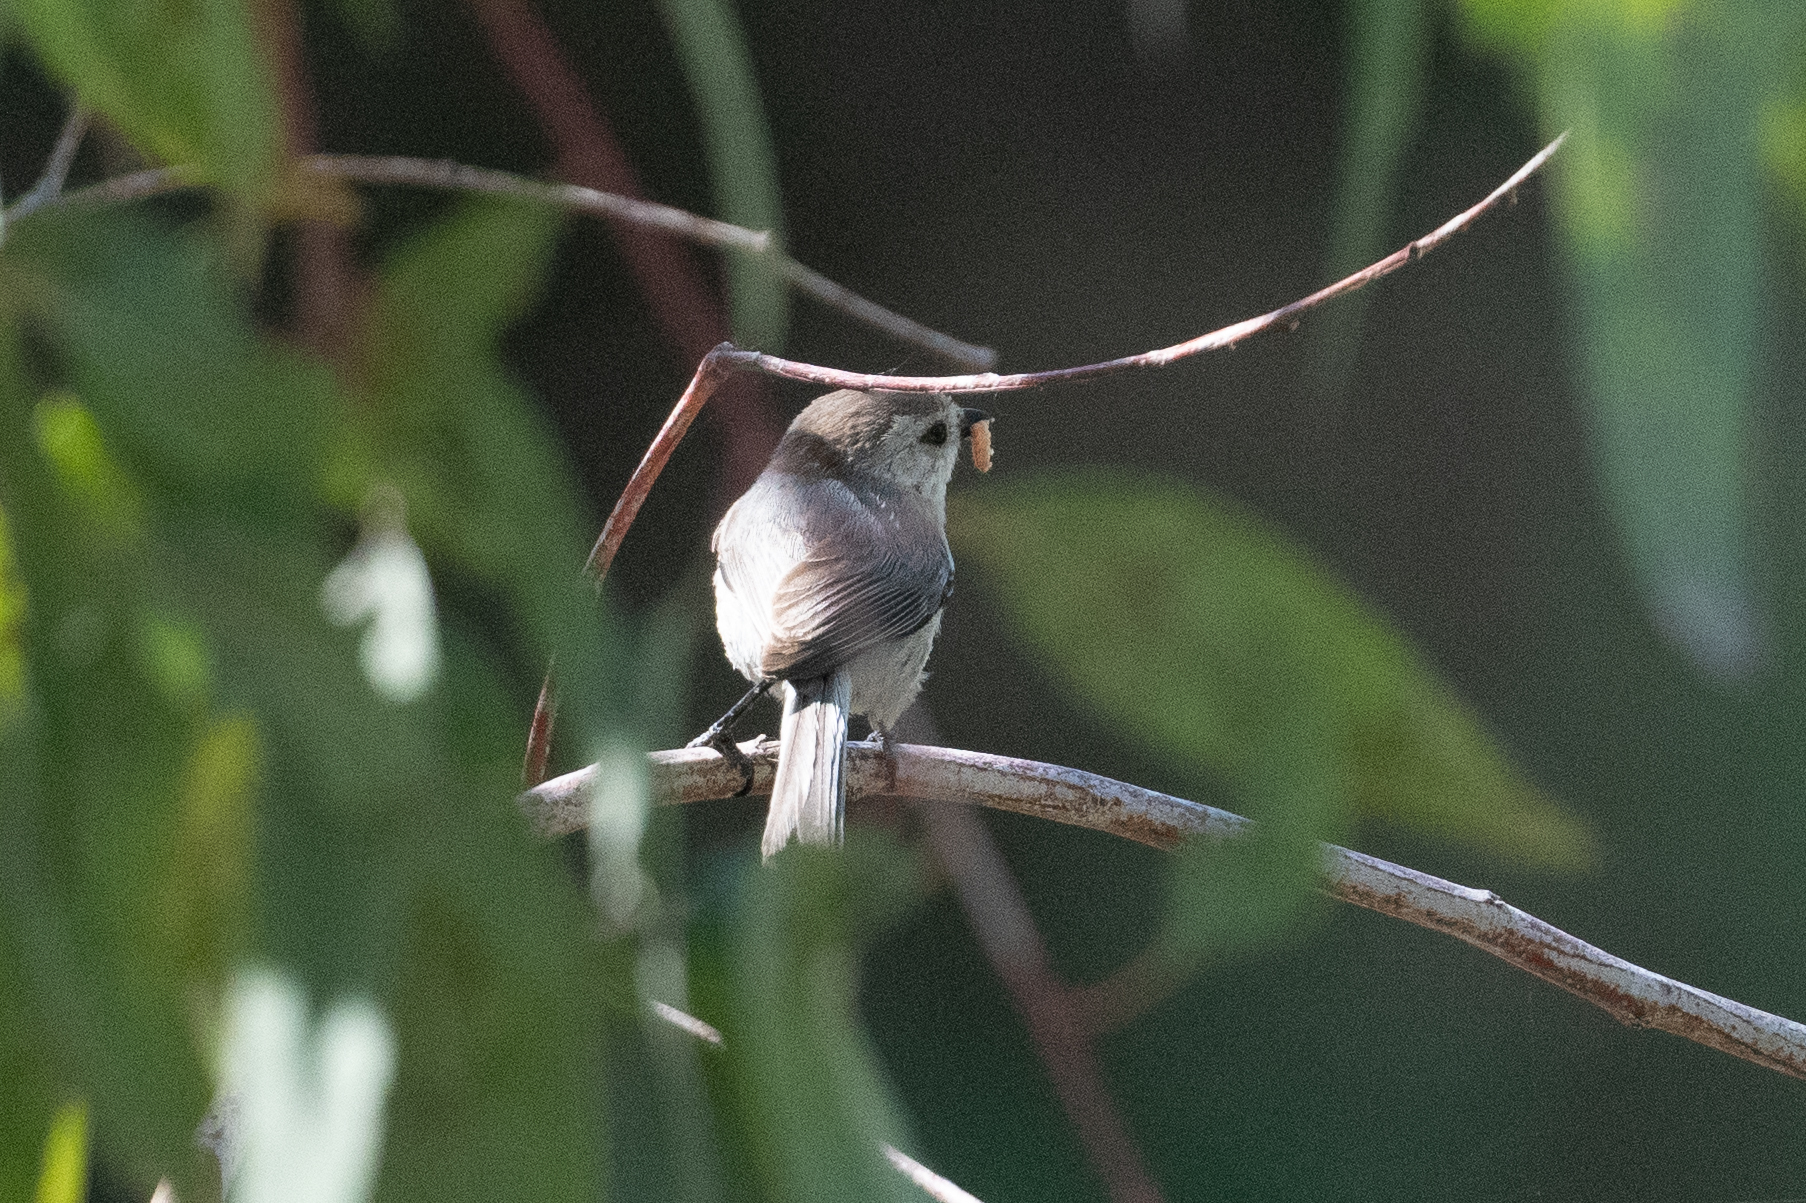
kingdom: Animalia
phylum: Chordata
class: Aves
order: Passeriformes
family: Aegithalidae
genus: Psaltriparus
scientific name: Psaltriparus minimus
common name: American bushtit
